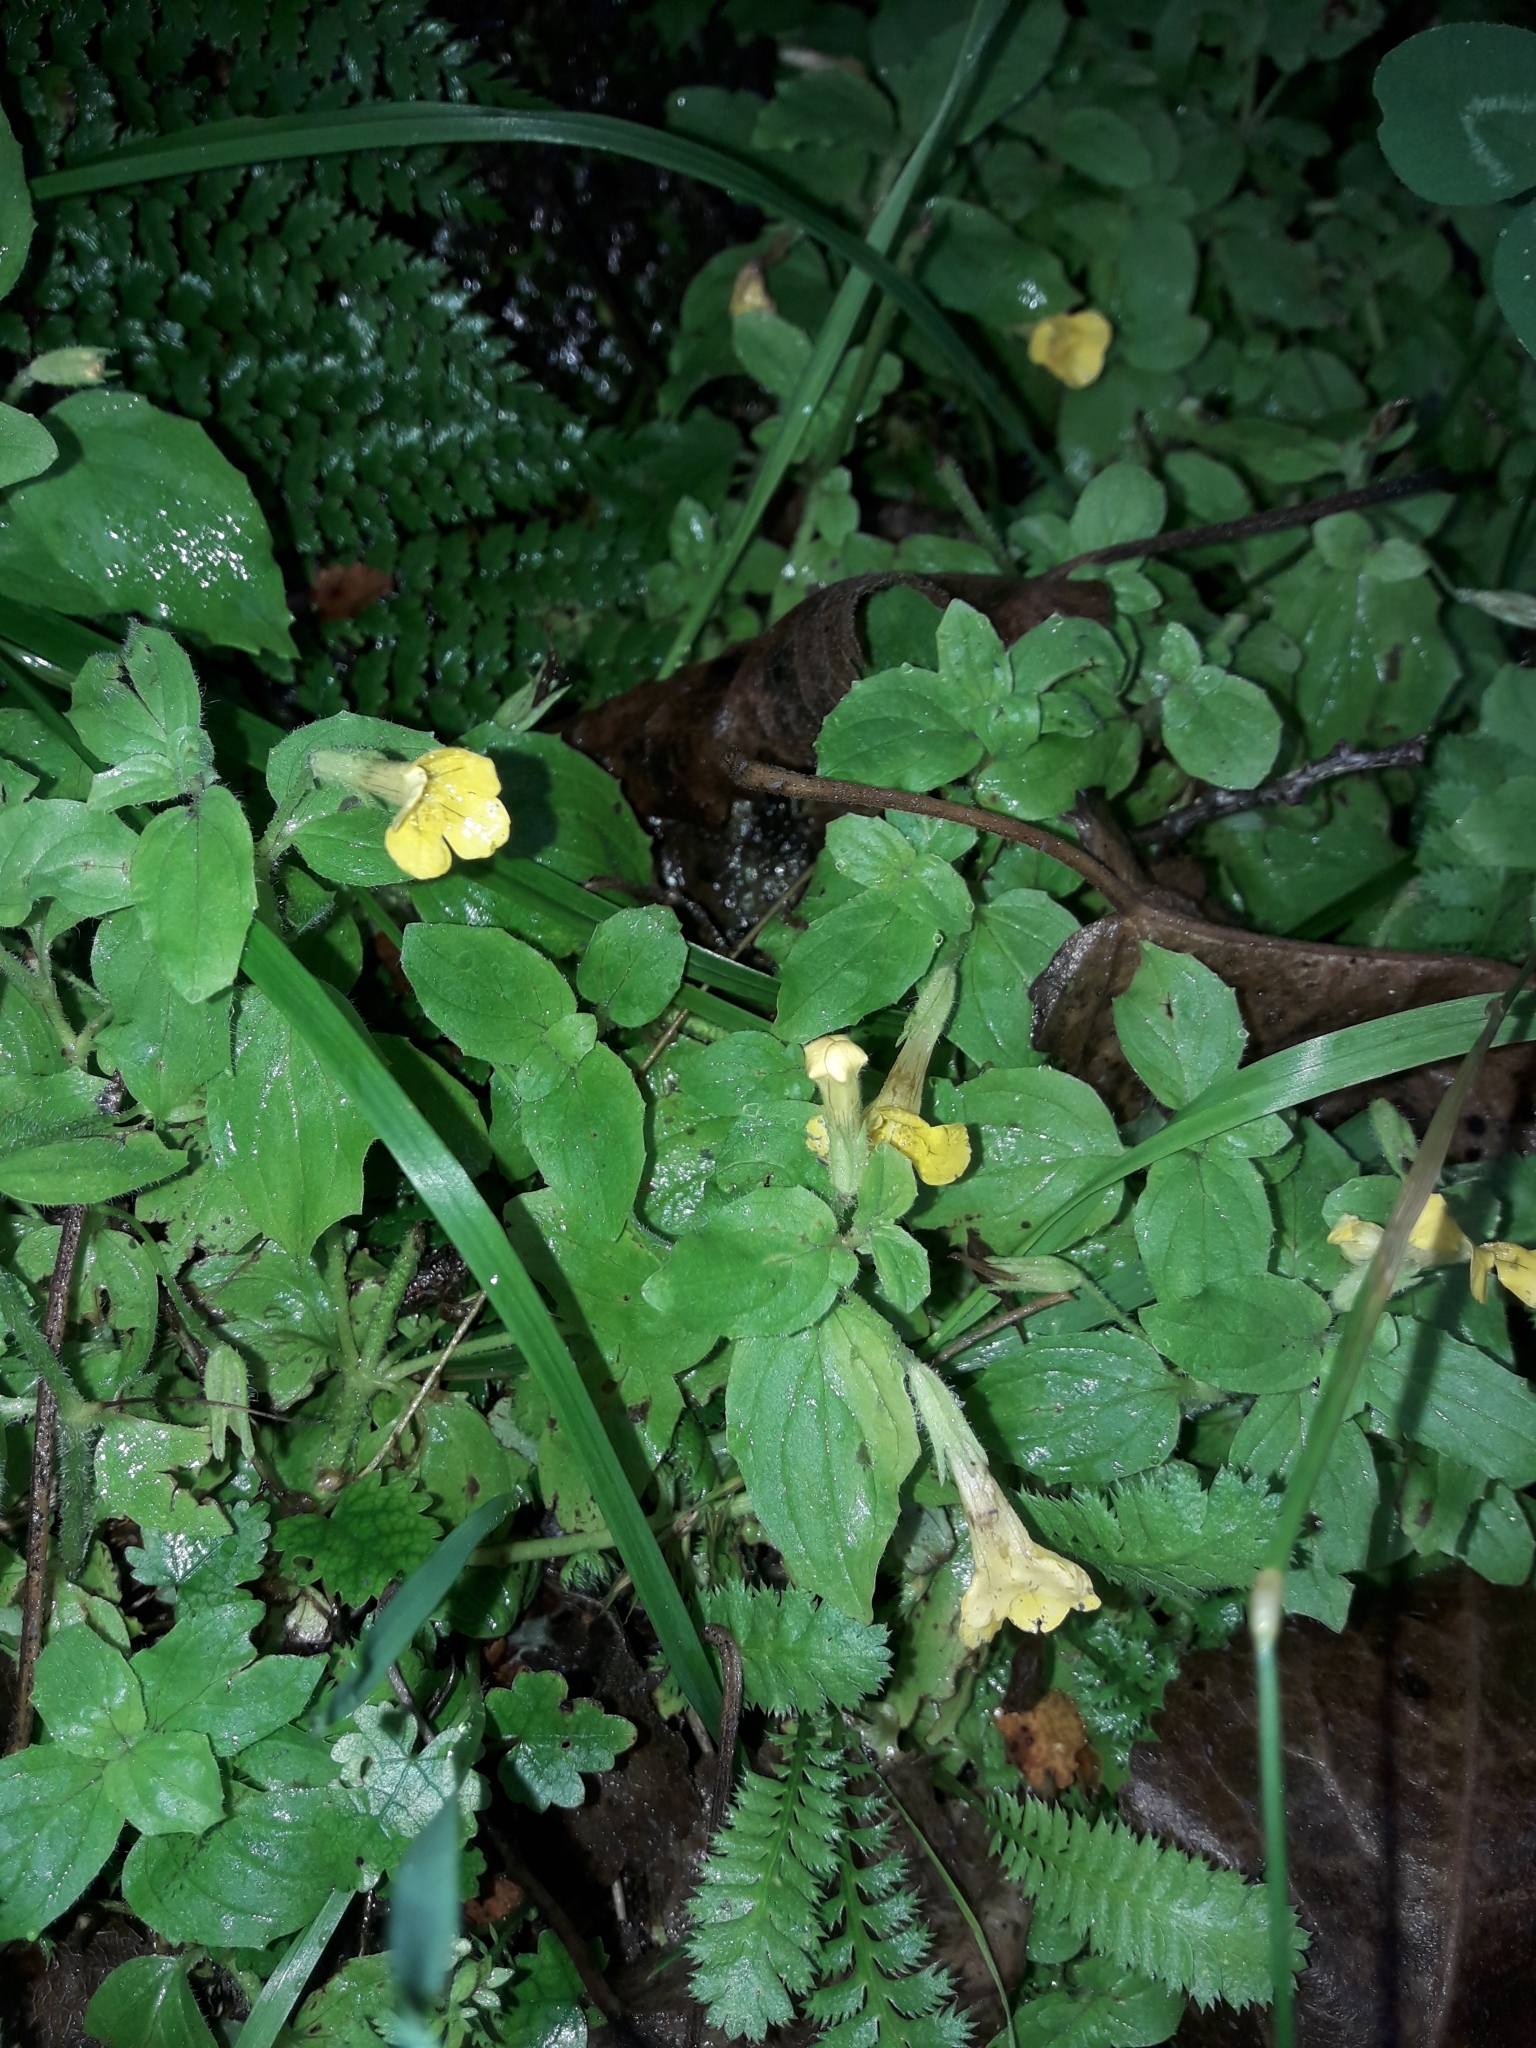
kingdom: Plantae
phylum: Tracheophyta
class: Magnoliopsida
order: Lamiales
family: Phrymaceae
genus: Erythranthe
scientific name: Erythranthe moschata
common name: Muskflower
